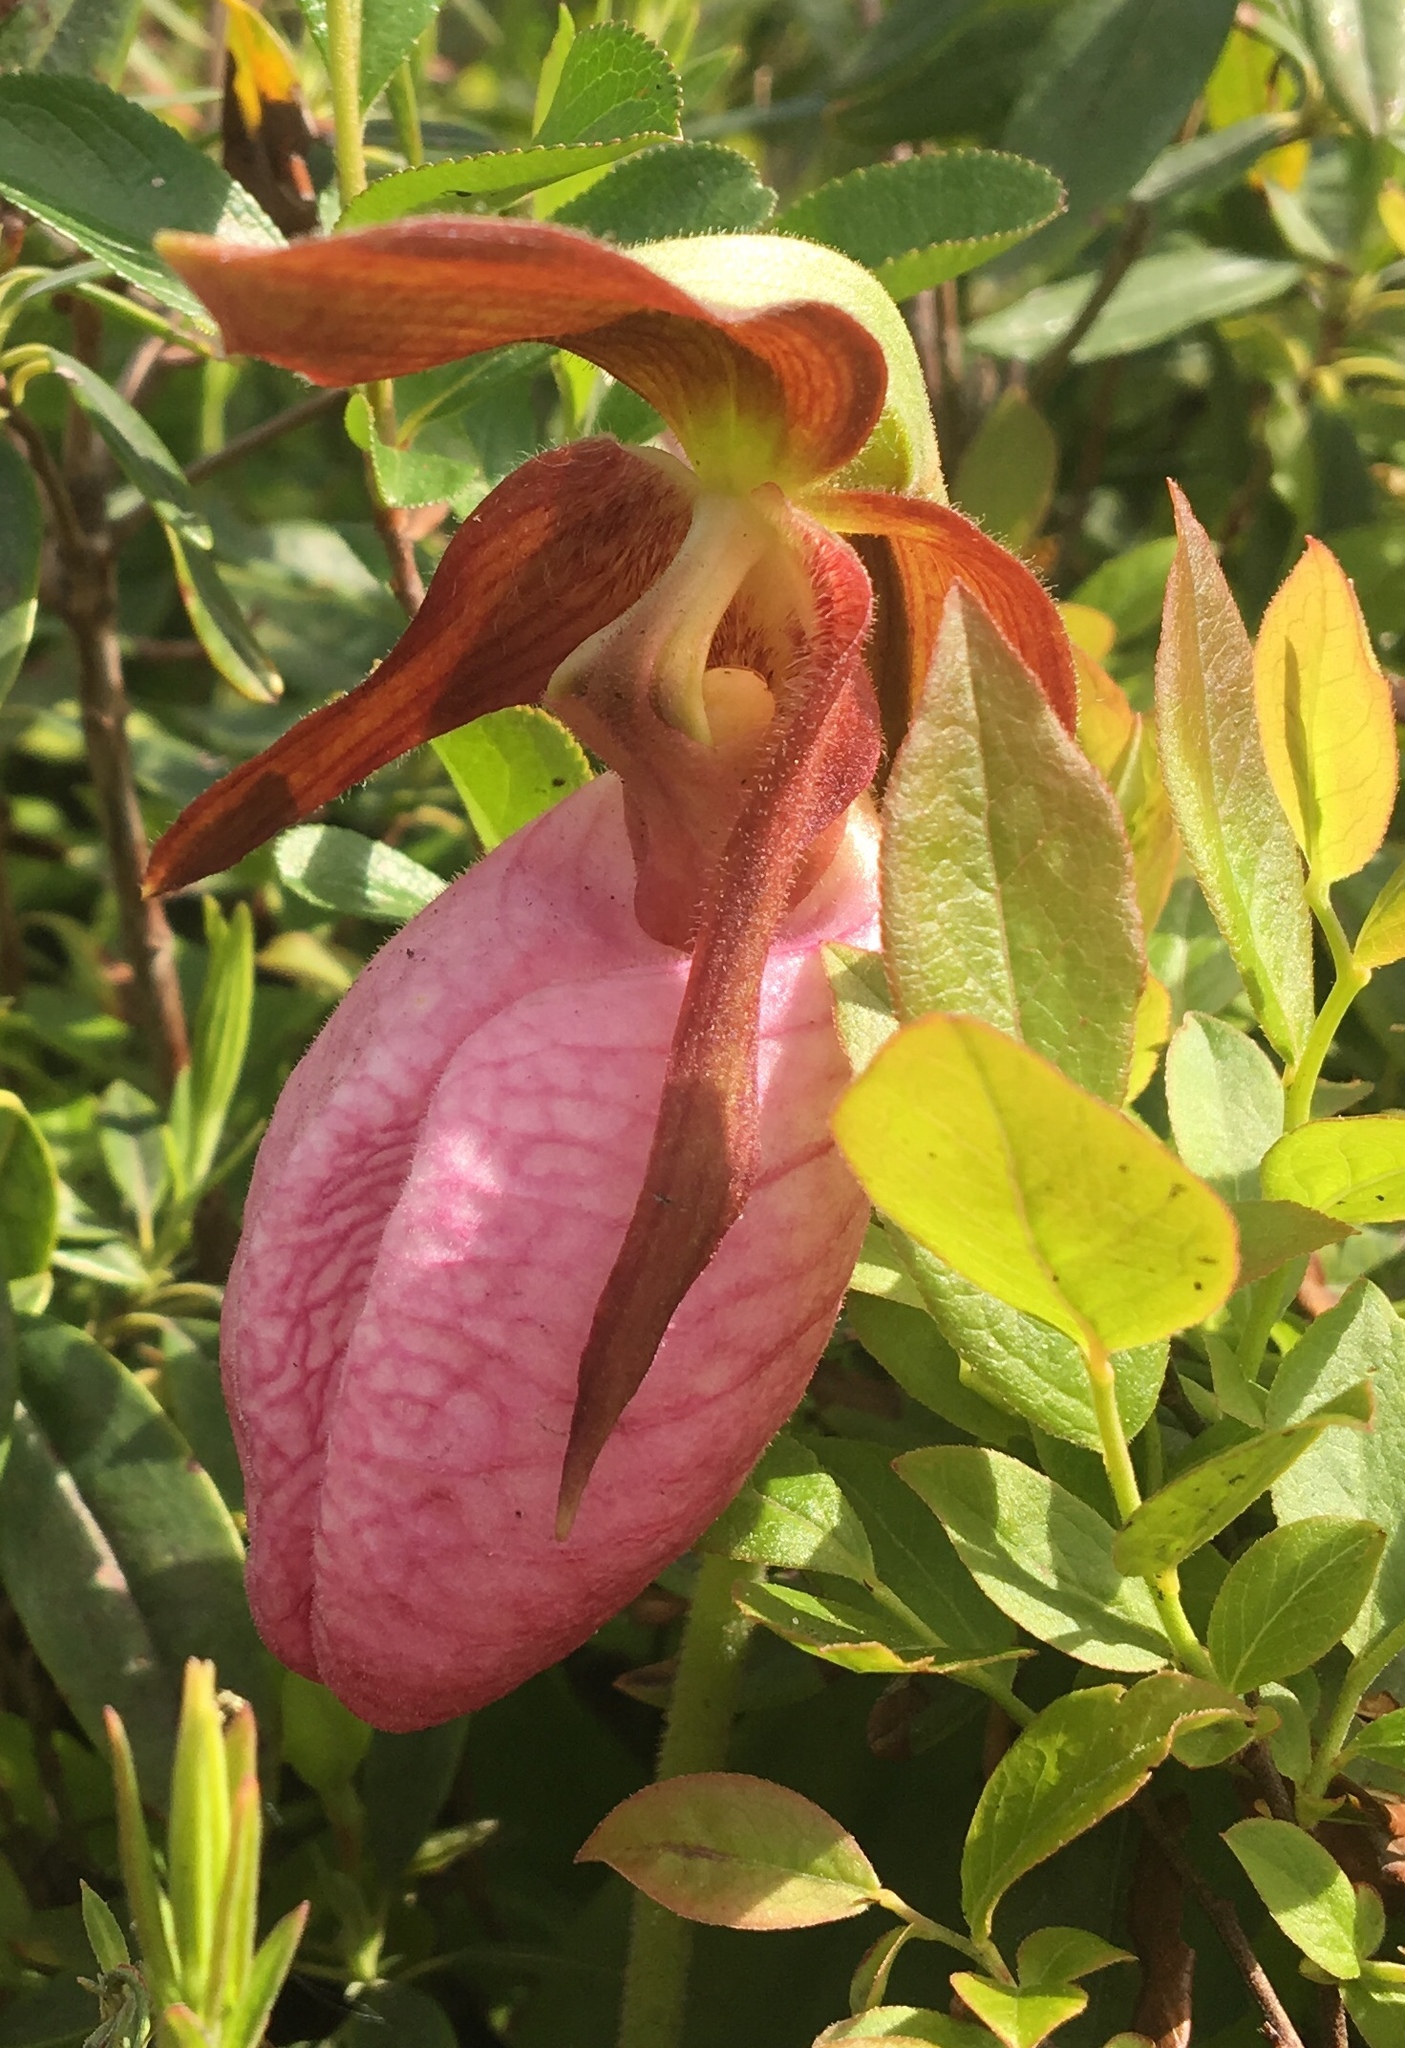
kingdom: Plantae
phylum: Tracheophyta
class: Liliopsida
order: Asparagales
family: Orchidaceae
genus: Cypripedium
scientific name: Cypripedium acaule
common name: Pink lady's-slipper
